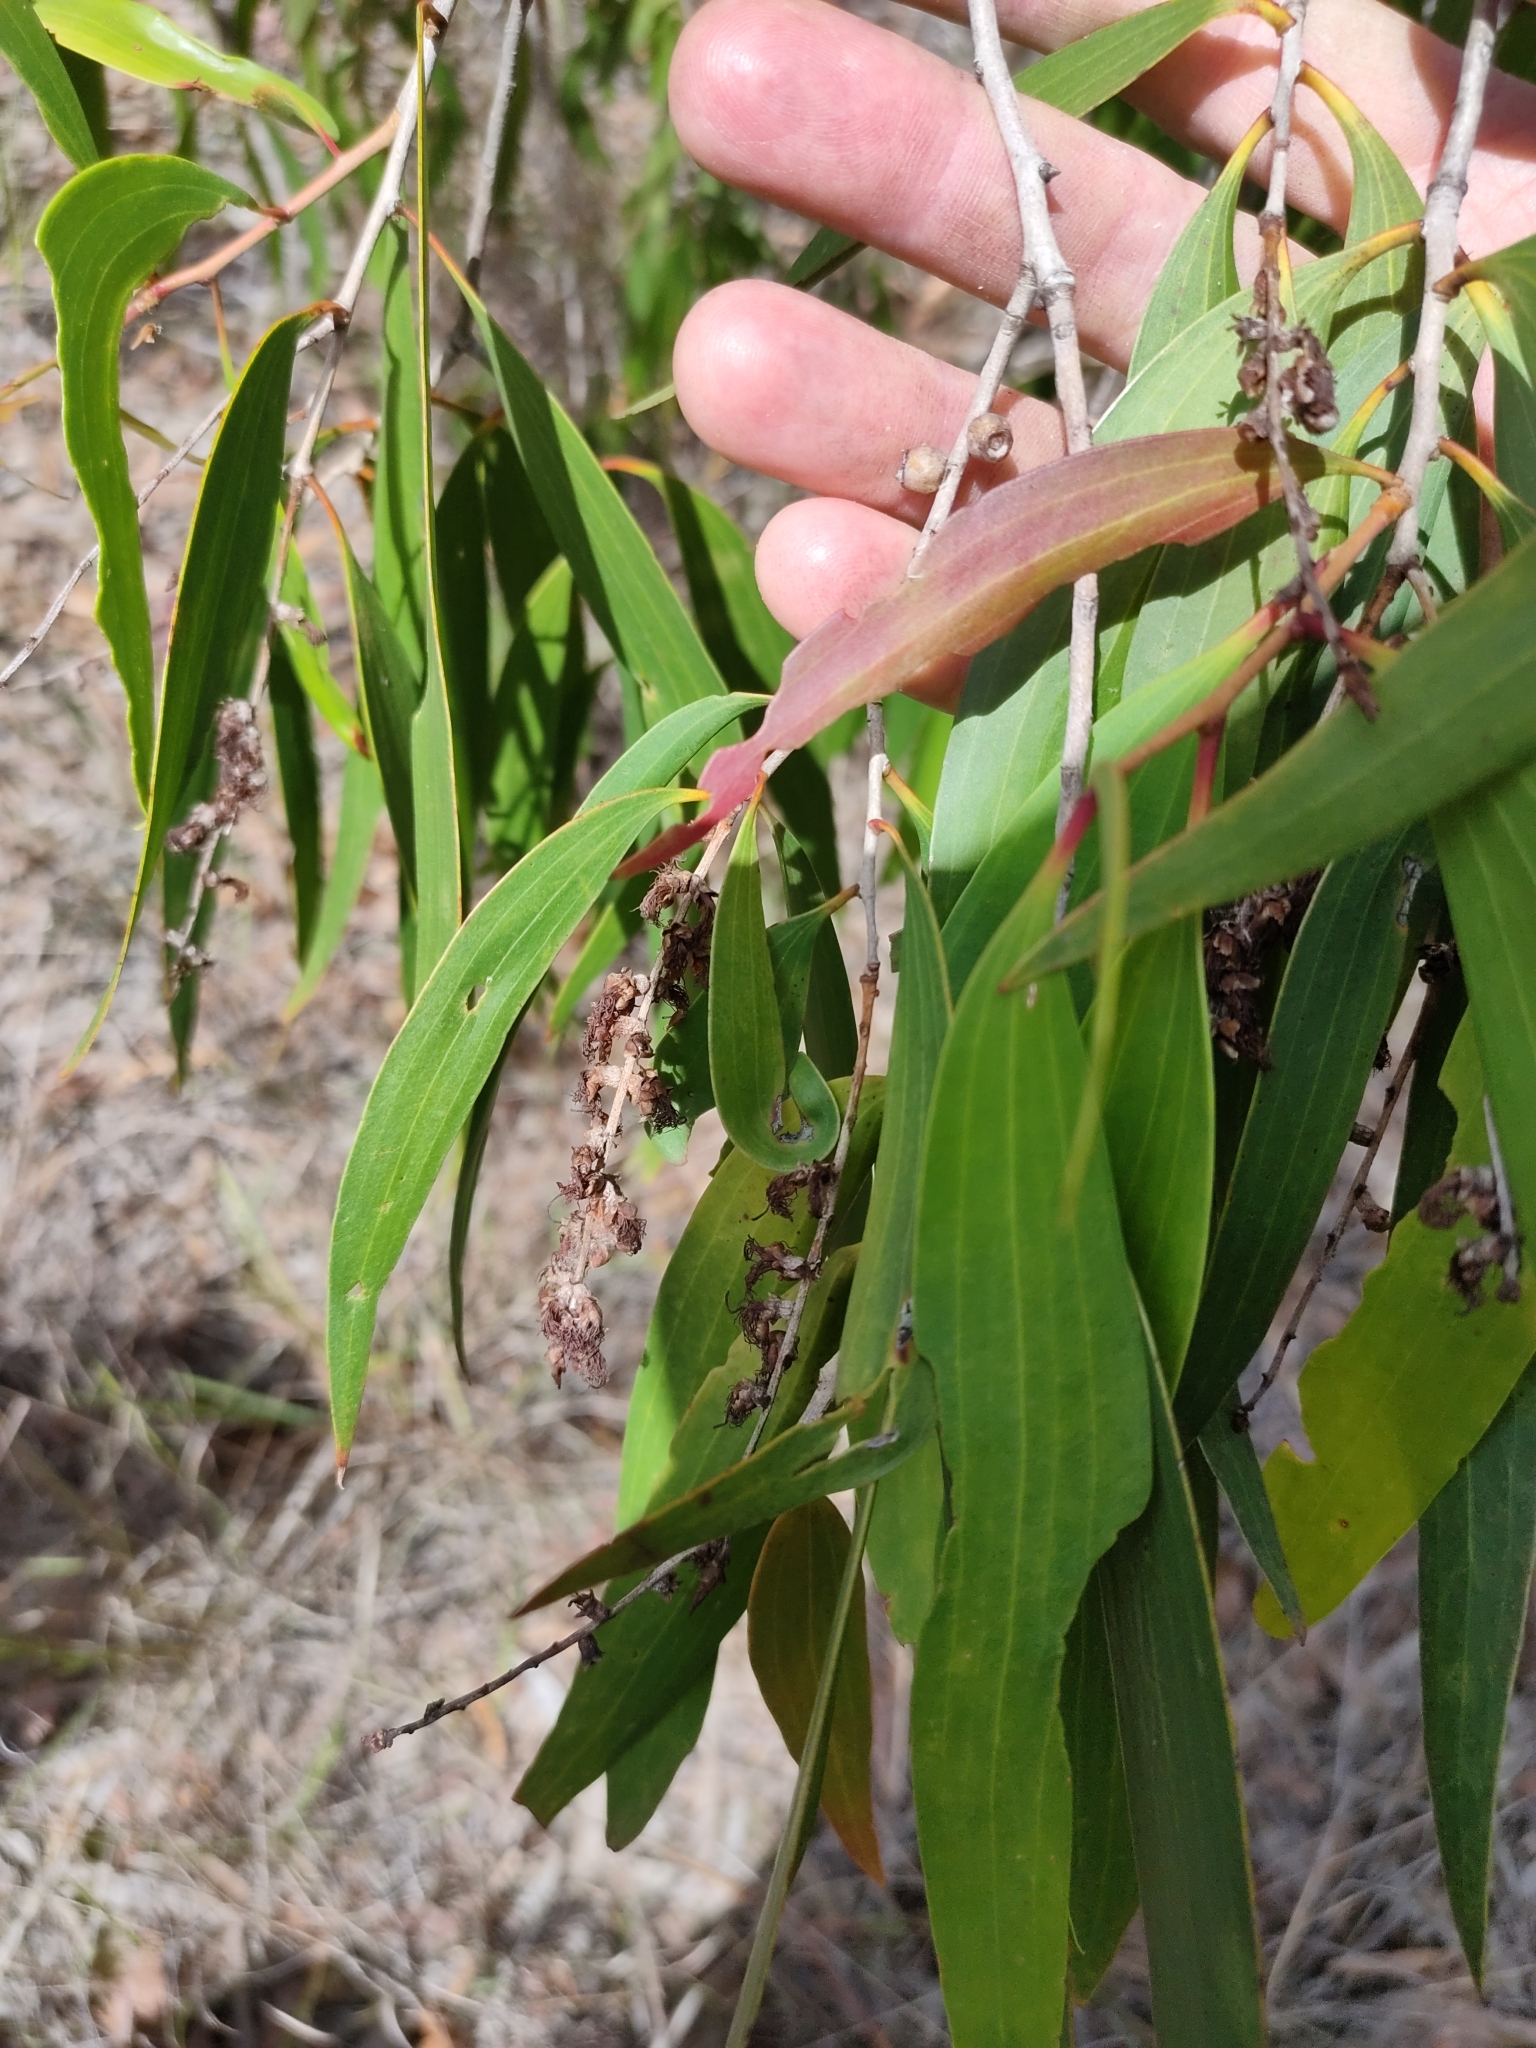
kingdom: Plantae
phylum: Tracheophyta
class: Magnoliopsida
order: Myrtales
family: Myrtaceae
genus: Melaleuca
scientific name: Melaleuca leucadendra
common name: Weeping paperbark
